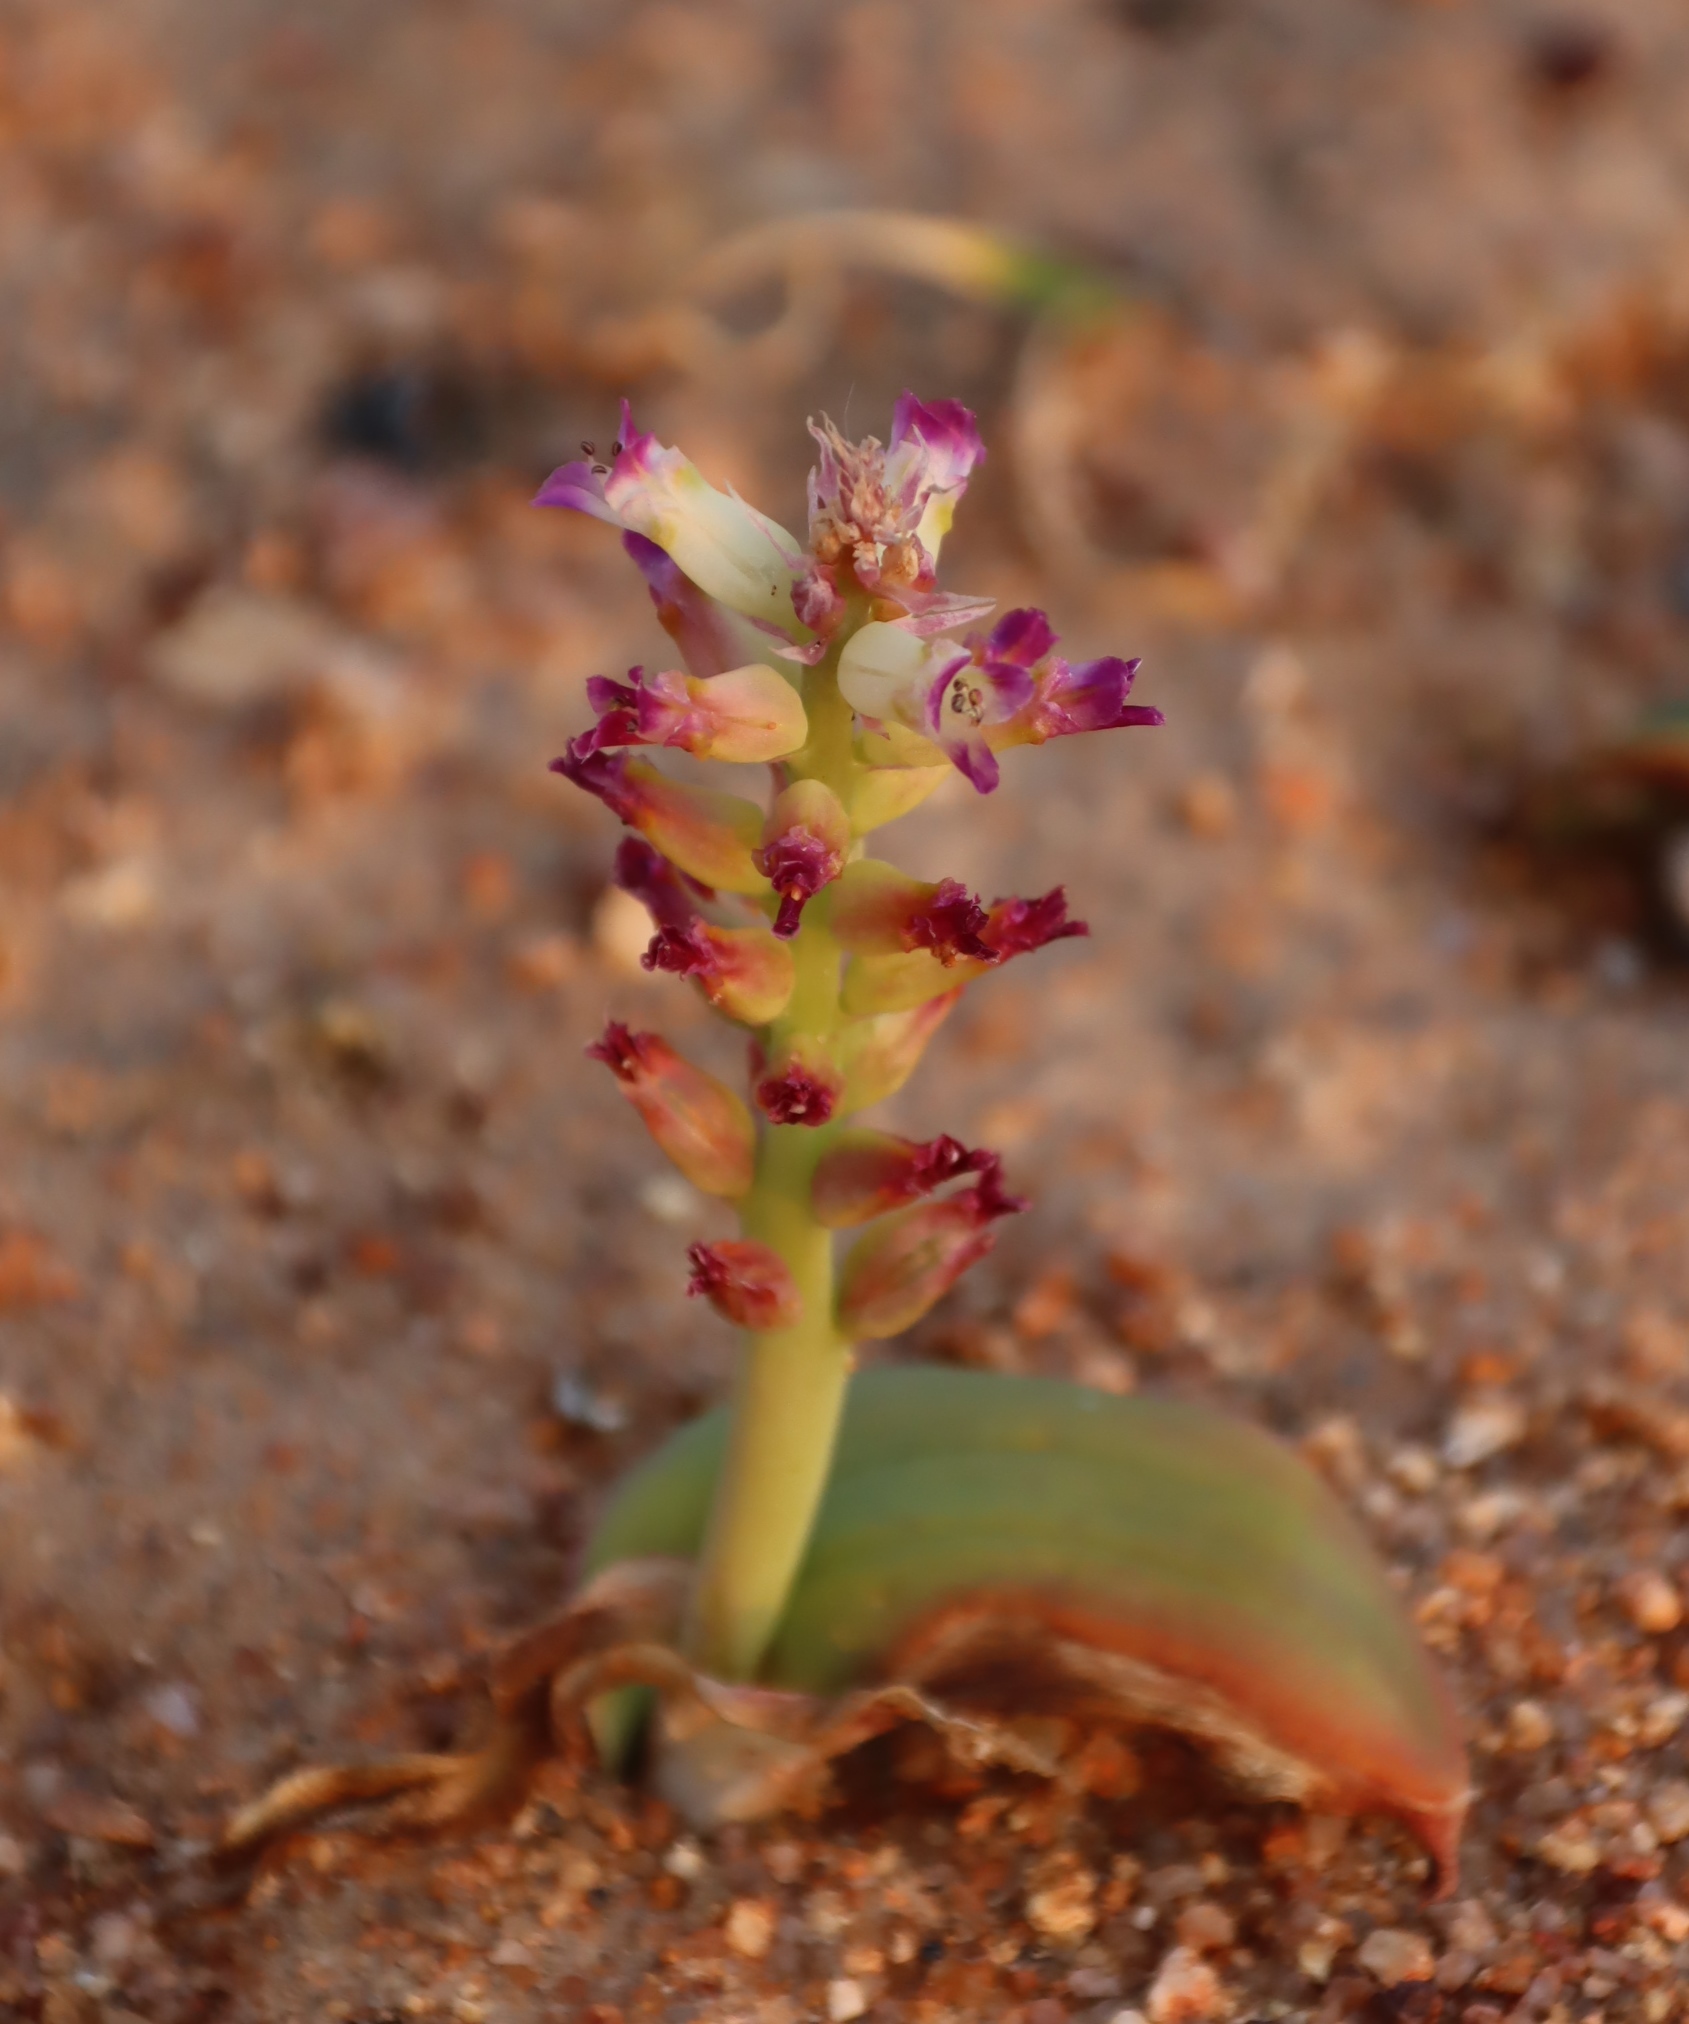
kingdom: Plantae
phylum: Tracheophyta
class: Liliopsida
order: Asparagales
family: Asparagaceae
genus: Lachenalia
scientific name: Lachenalia carnosa
